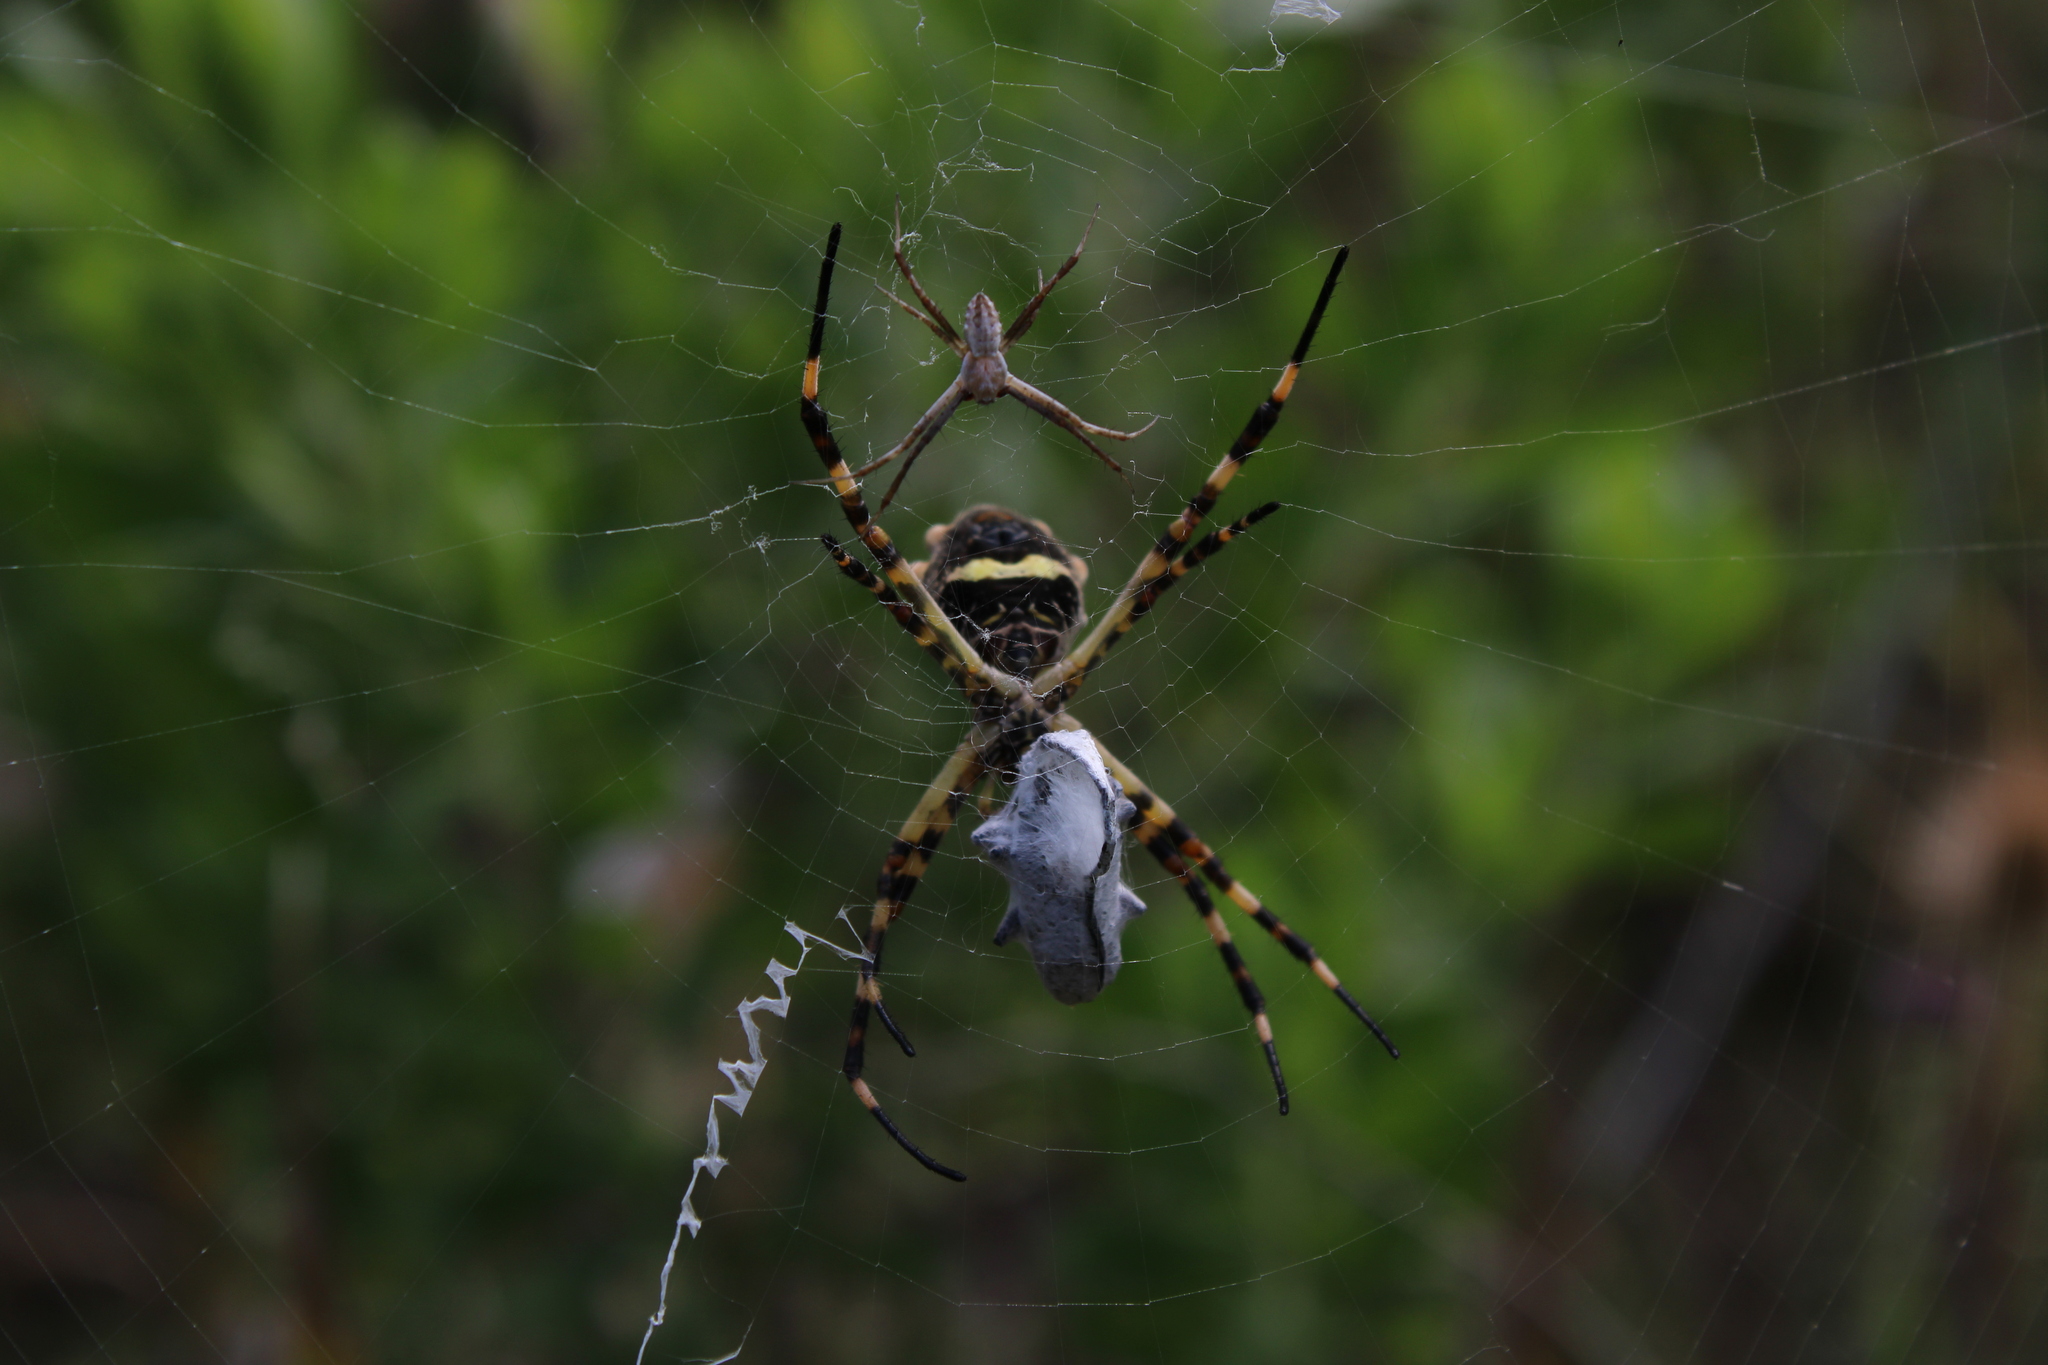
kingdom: Animalia
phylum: Arthropoda
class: Arachnida
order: Araneae
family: Araneidae
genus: Argiope
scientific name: Argiope argentata
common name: Orb weavers
